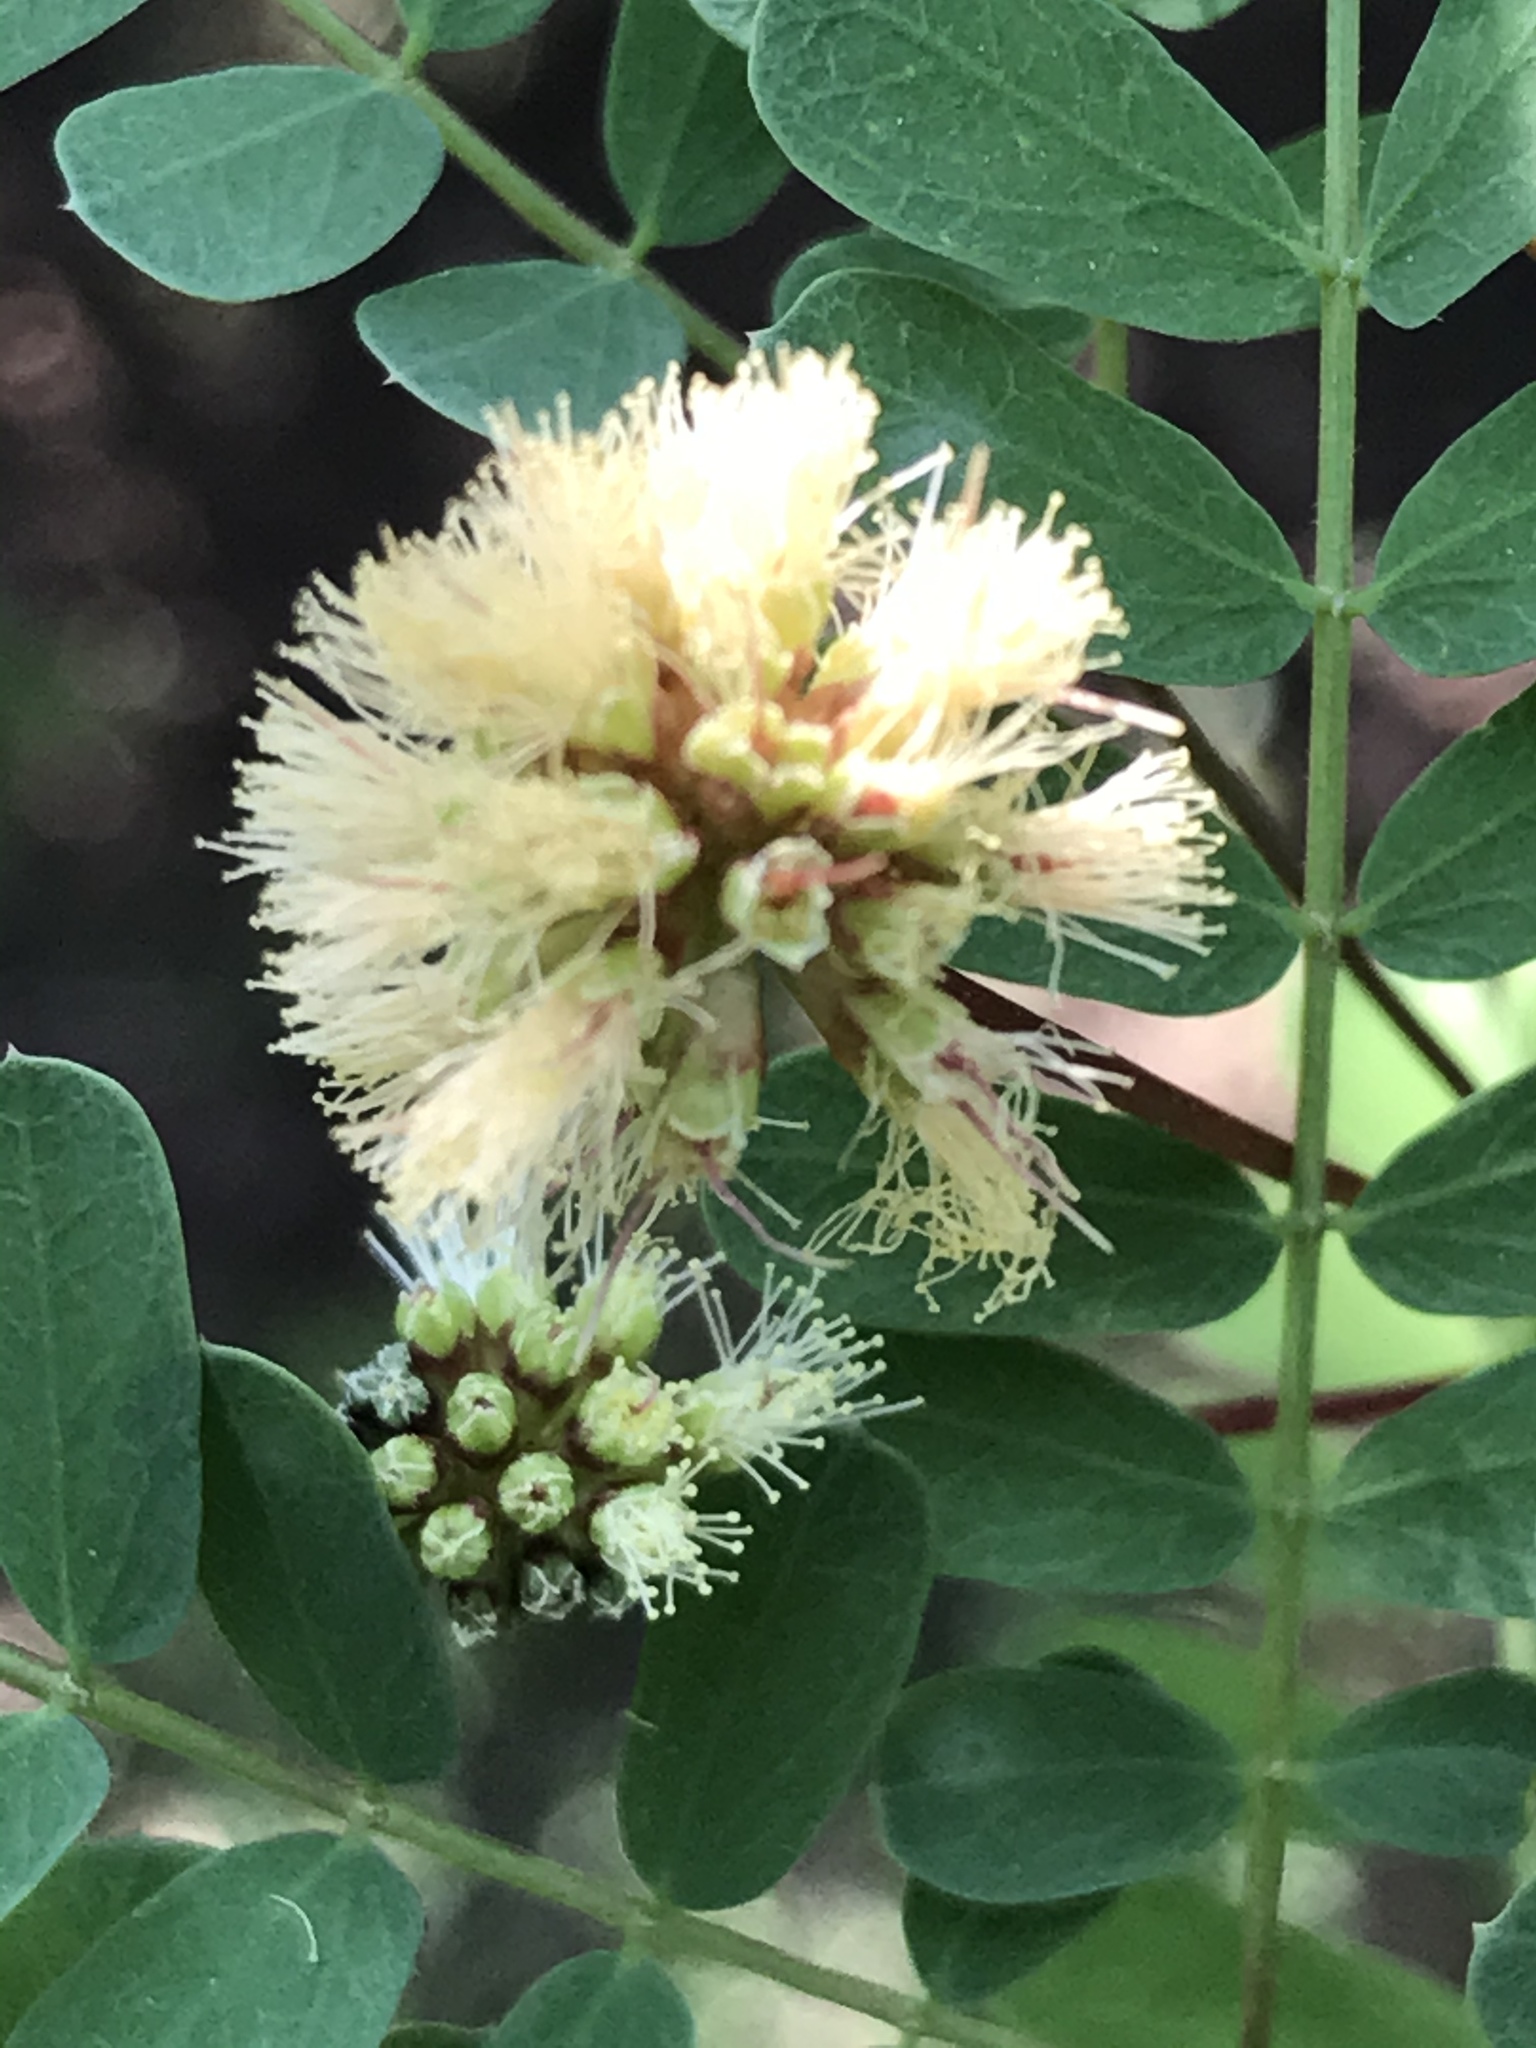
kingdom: Plantae
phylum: Tracheophyta
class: Magnoliopsida
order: Fabales
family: Fabaceae
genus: Senegalia
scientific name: Senegalia roemeriana
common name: Roemer's acacia
